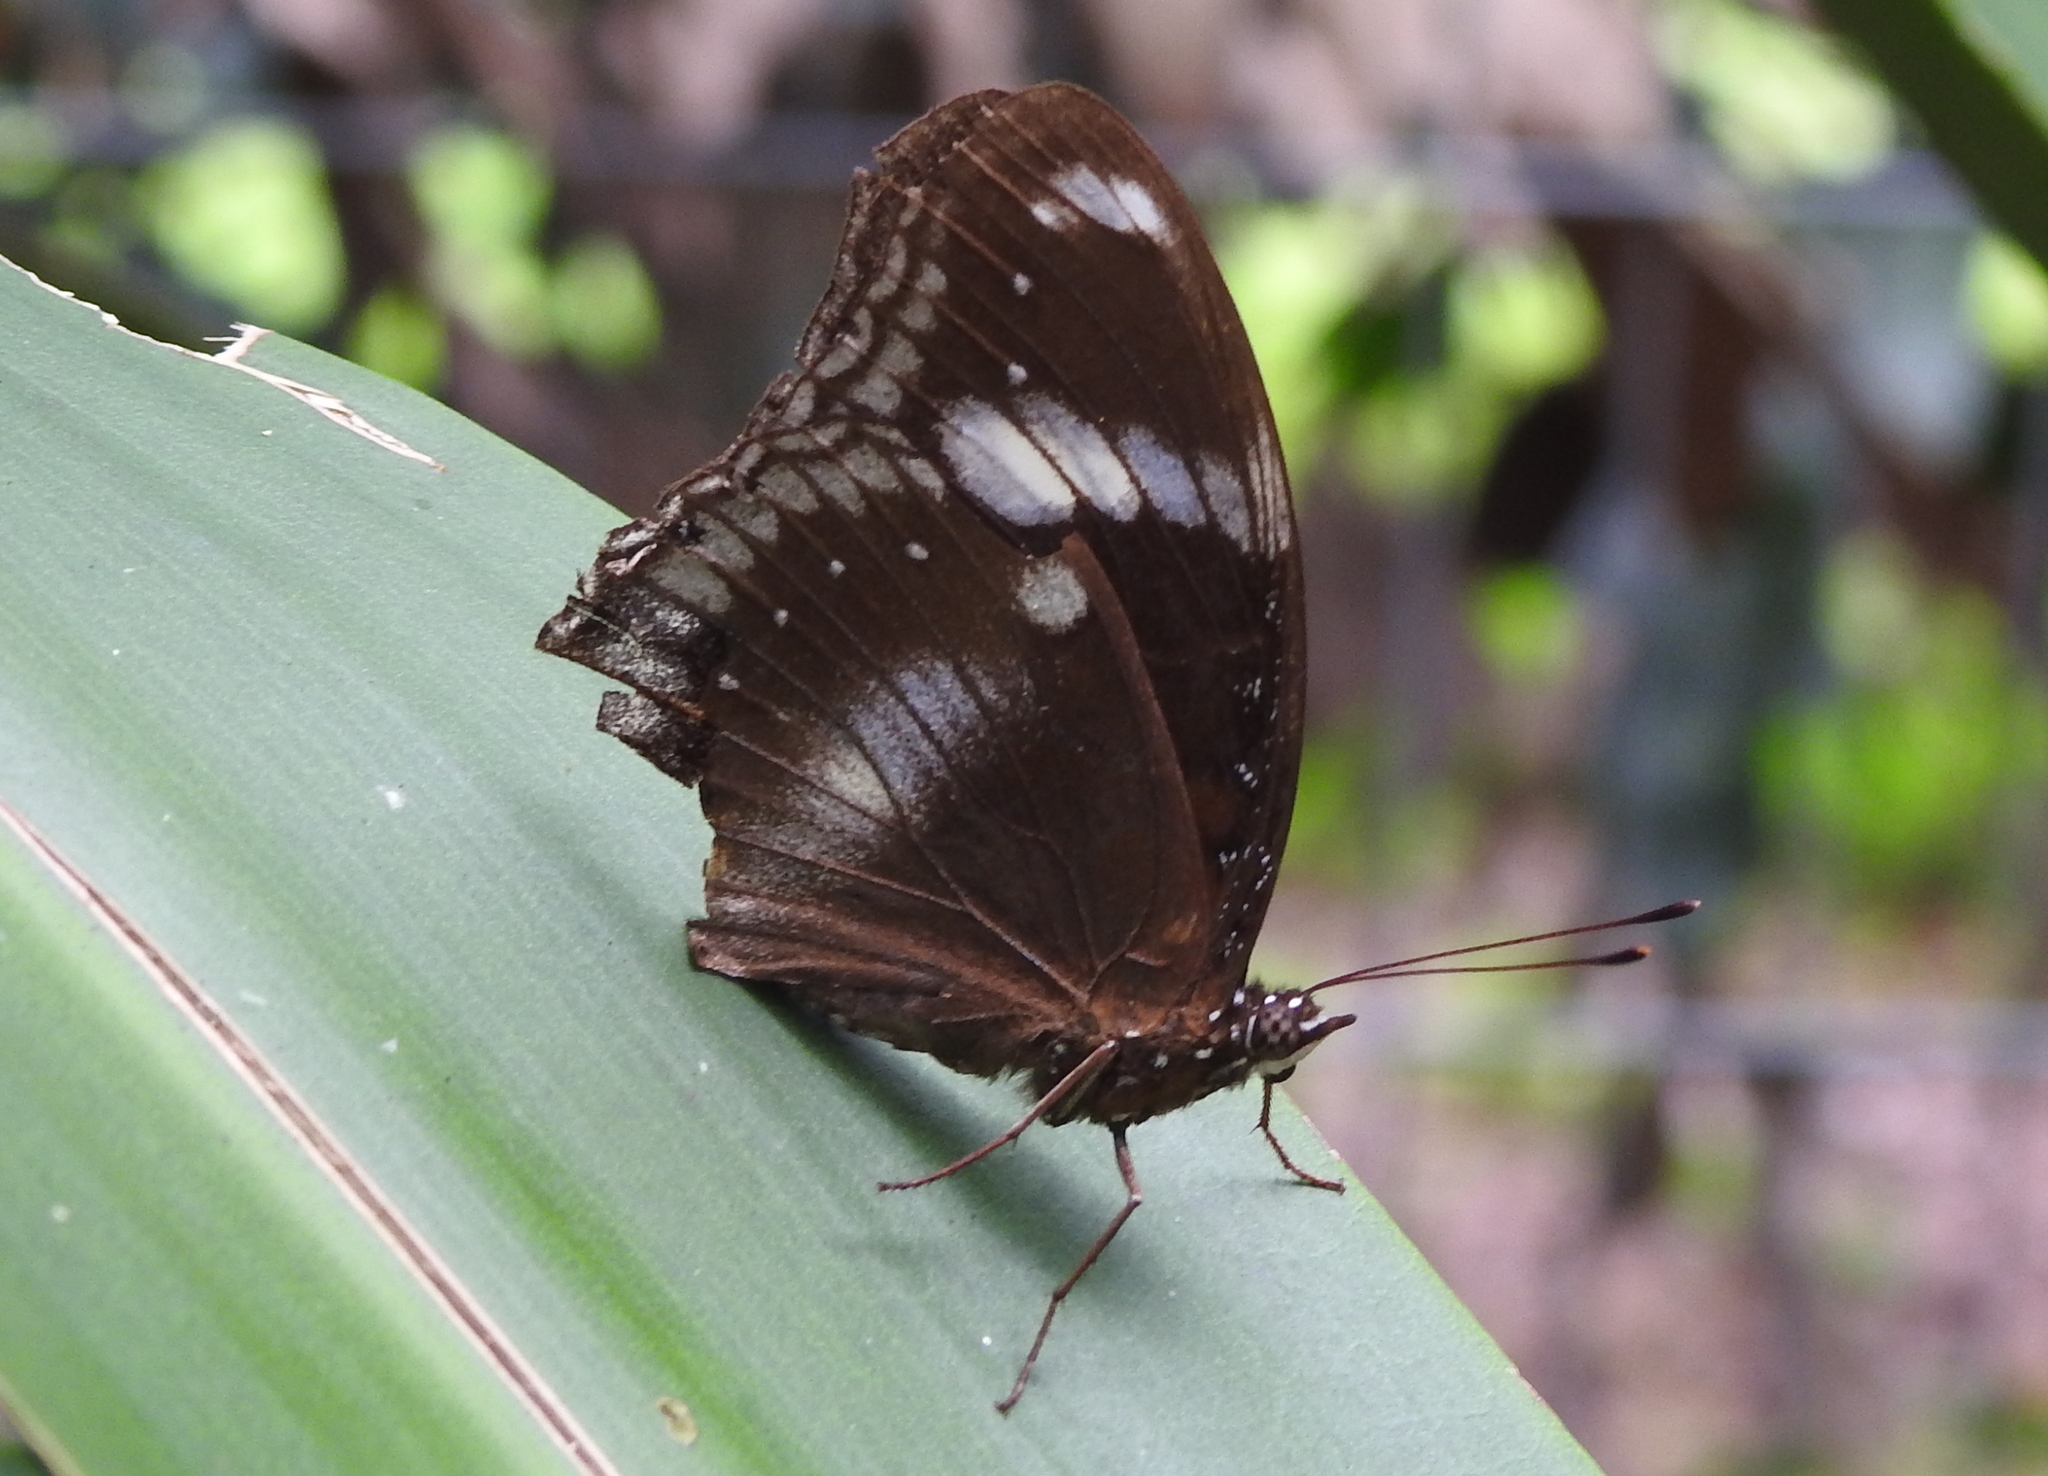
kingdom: Animalia
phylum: Arthropoda
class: Insecta
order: Lepidoptera
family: Nymphalidae
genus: Hypolimnas
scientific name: Hypolimnas bolina
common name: Great eggfly
